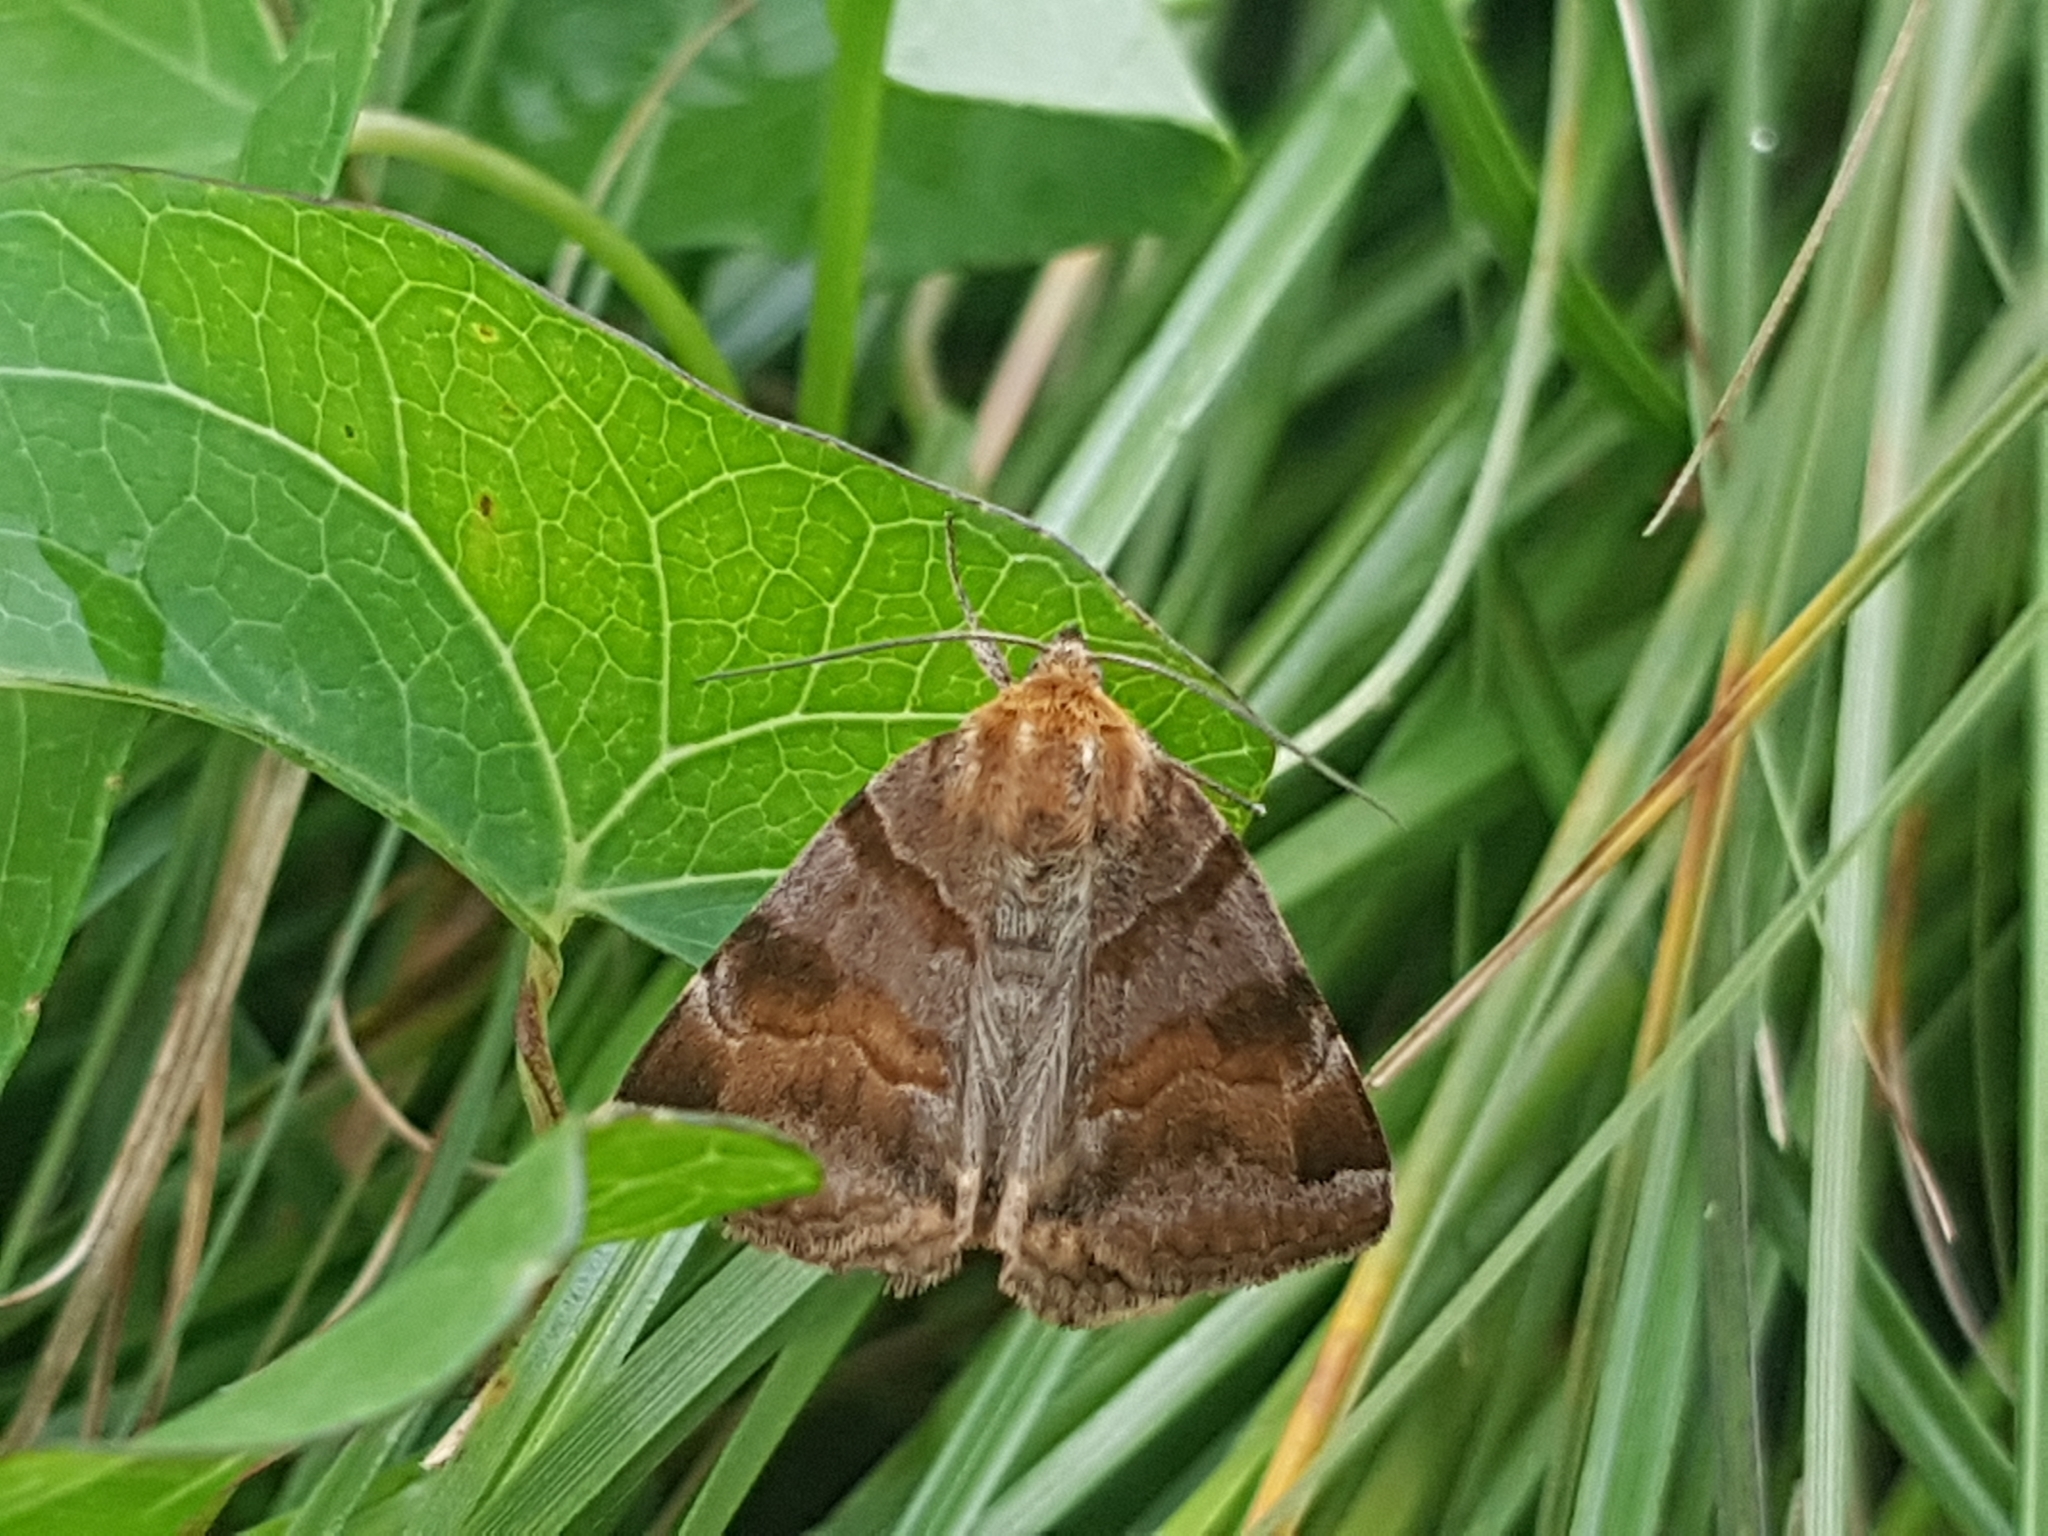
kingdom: Animalia
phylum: Arthropoda
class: Insecta
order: Lepidoptera
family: Erebidae
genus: Euclidia
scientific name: Euclidia glyphica
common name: Burnet companion
